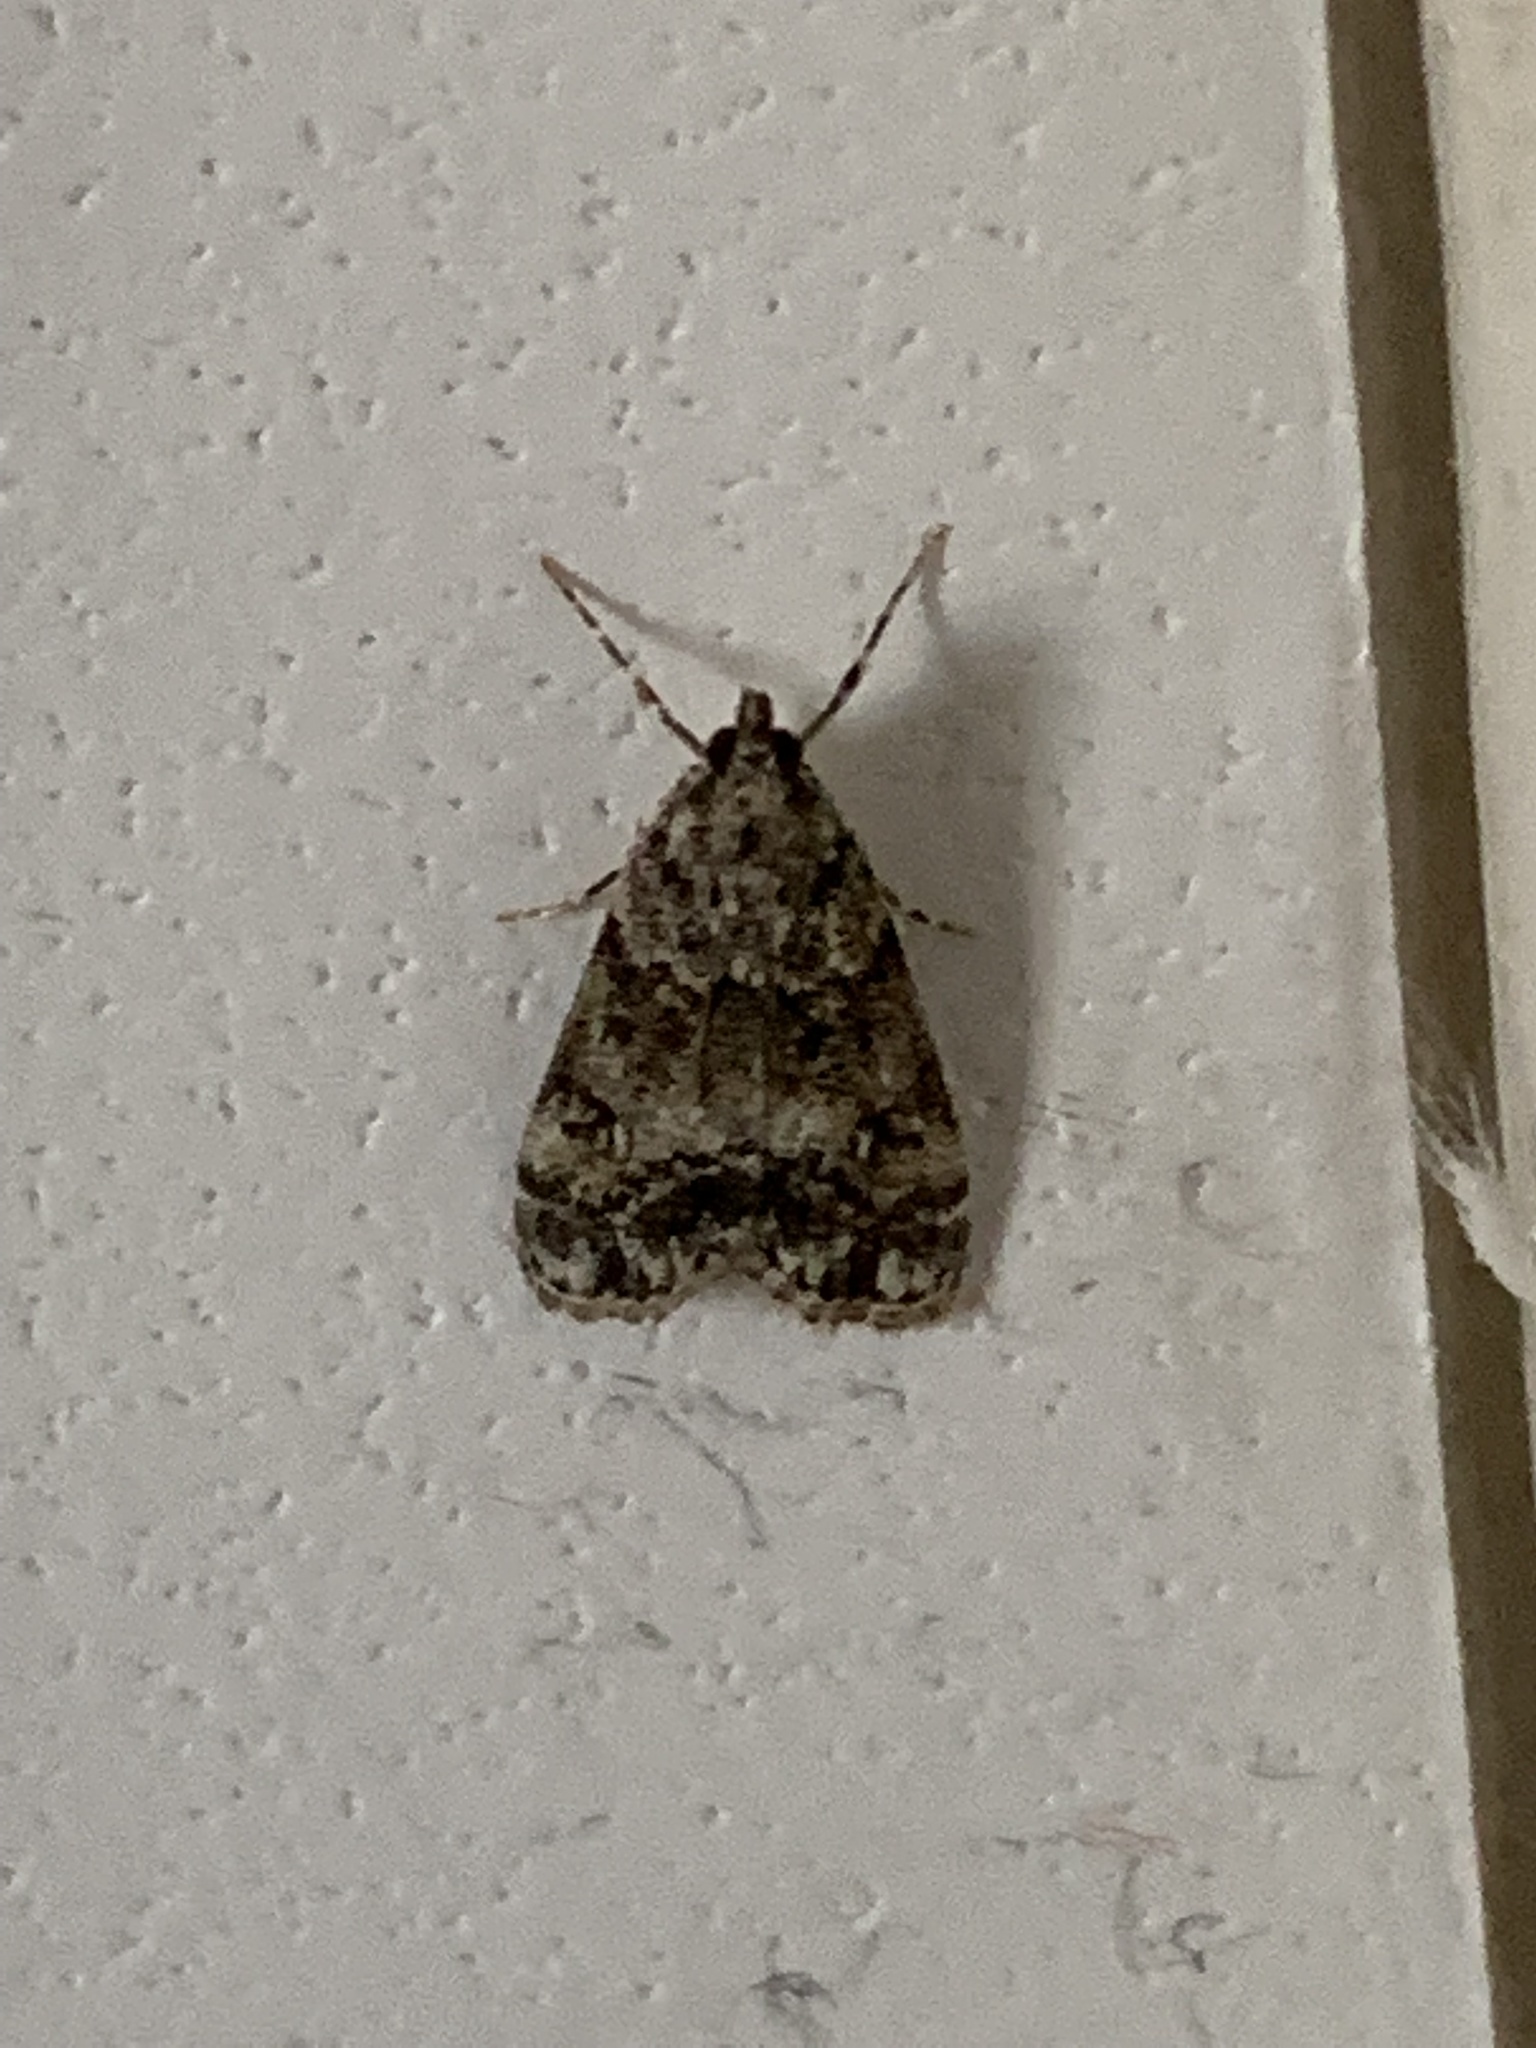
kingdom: Animalia
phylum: Arthropoda
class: Insecta
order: Lepidoptera
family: Crambidae
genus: Eudonia
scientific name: Eudonia lacustrata
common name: Little grey
